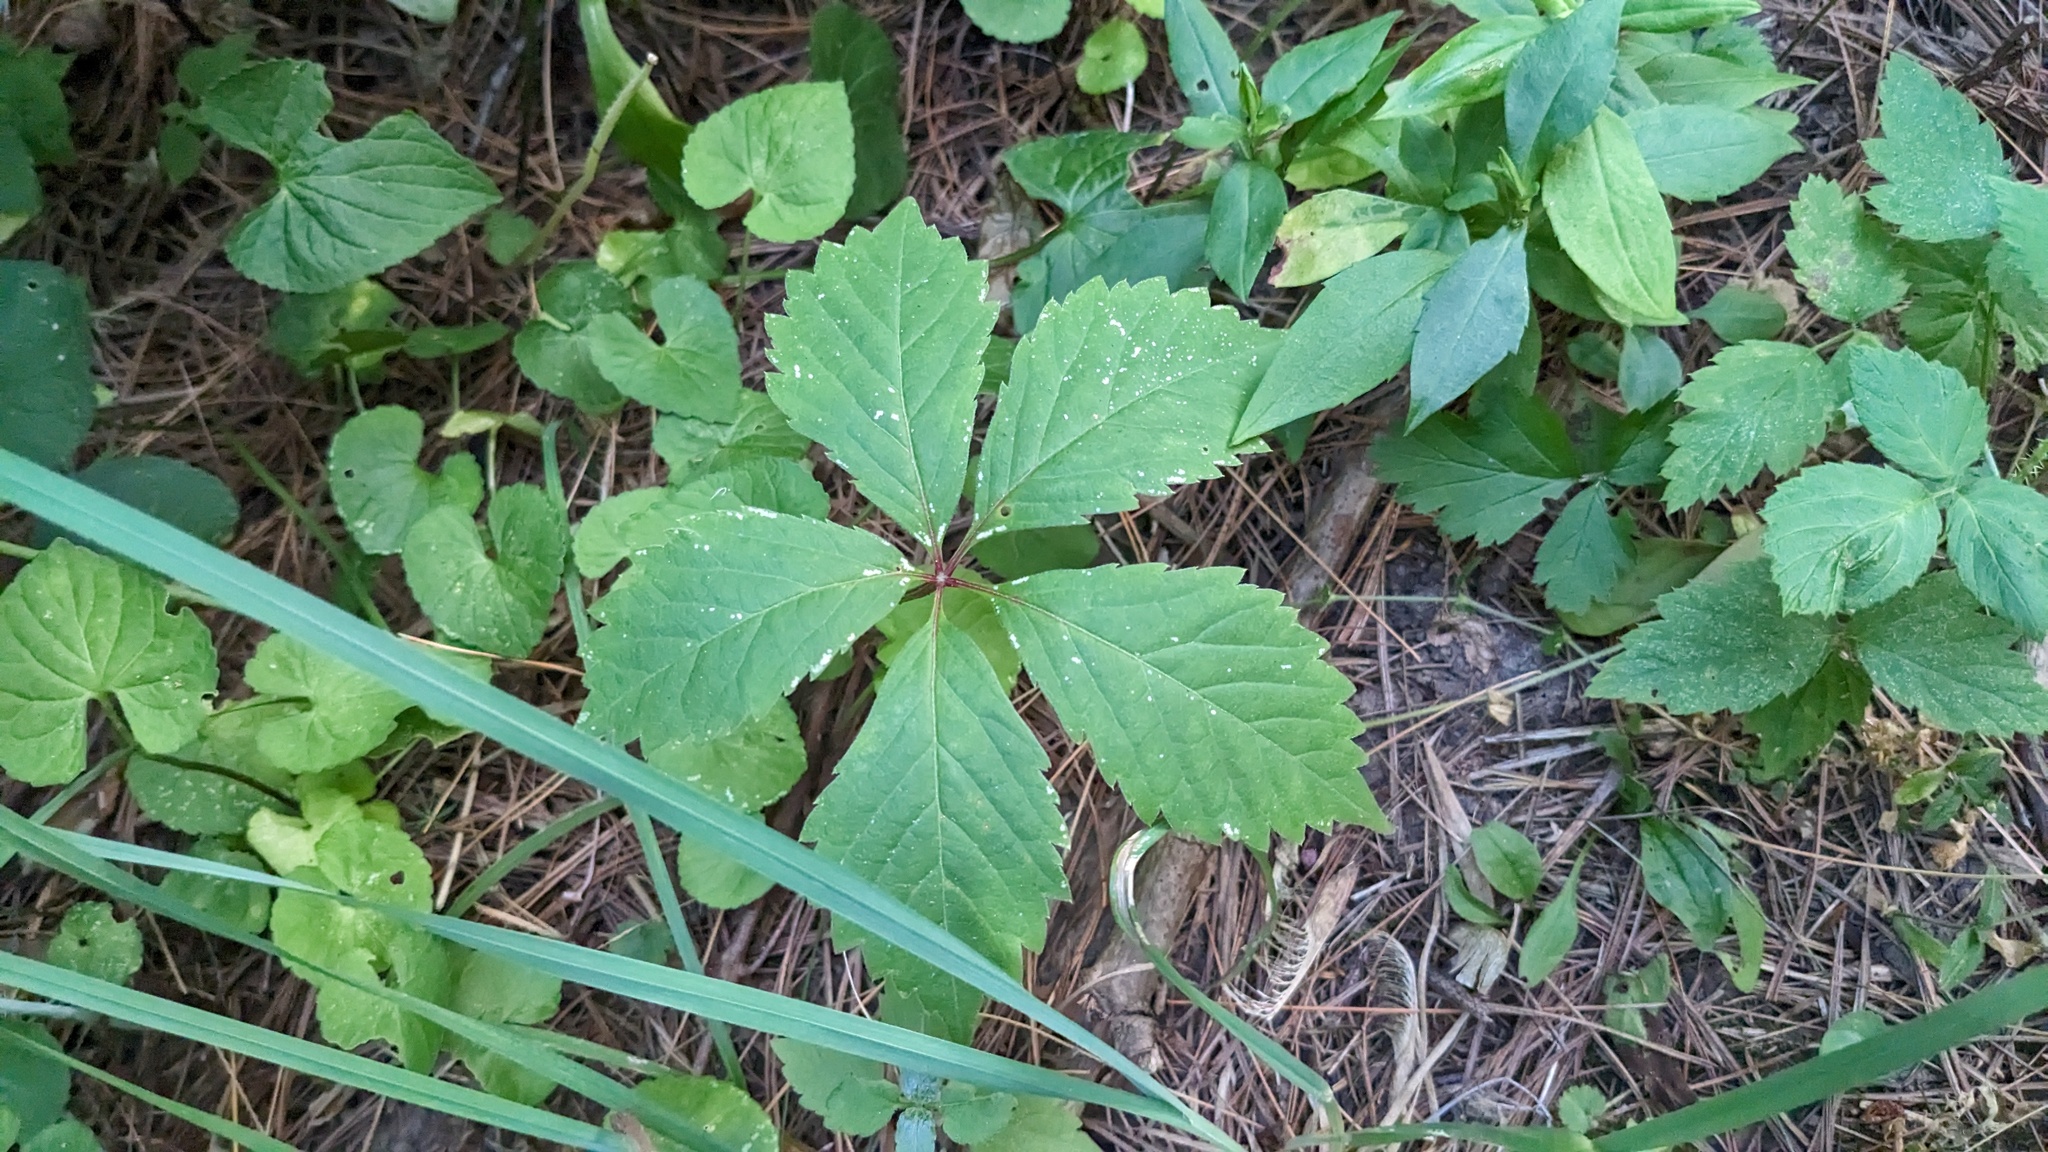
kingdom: Plantae
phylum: Tracheophyta
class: Magnoliopsida
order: Vitales
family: Vitaceae
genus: Parthenocissus
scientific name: Parthenocissus inserta
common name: False virginia-creeper
